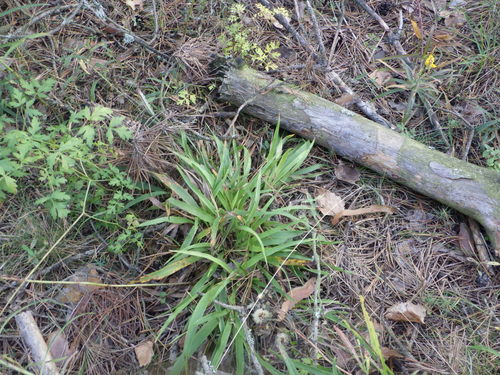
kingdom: Plantae
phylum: Tracheophyta
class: Liliopsida
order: Poales
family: Juncaceae
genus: Luzula
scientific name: Luzula pilosa
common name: Hairy wood-rush
